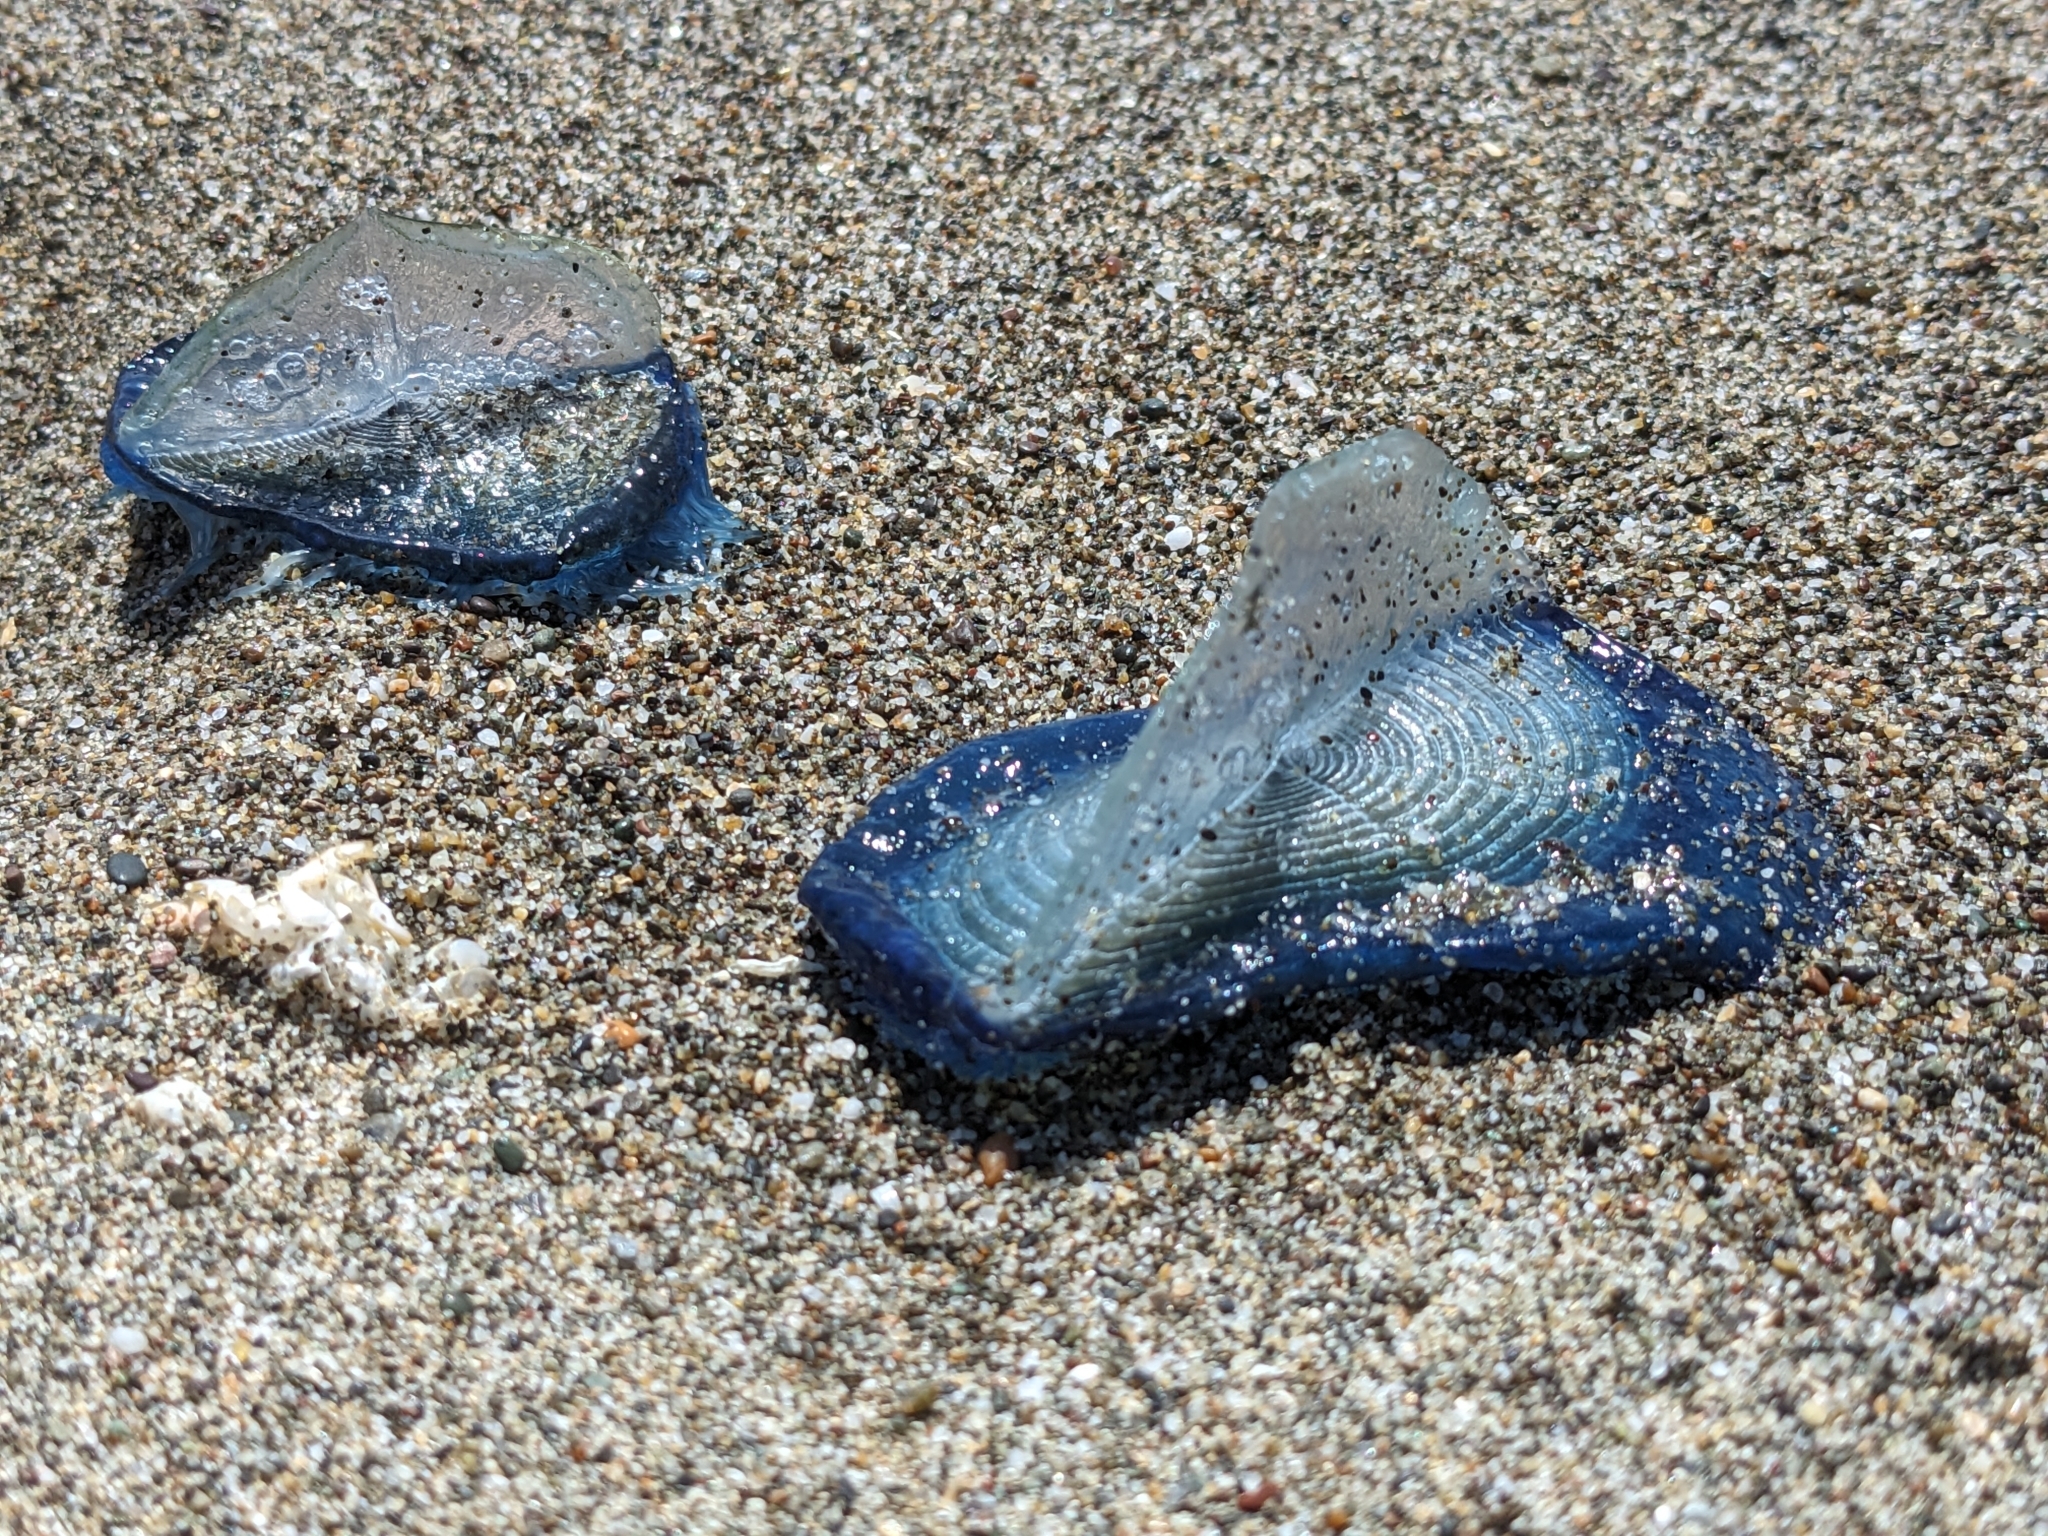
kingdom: Animalia
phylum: Cnidaria
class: Hydrozoa
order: Anthoathecata
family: Porpitidae
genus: Velella
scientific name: Velella velella
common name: By-the-wind-sailor
